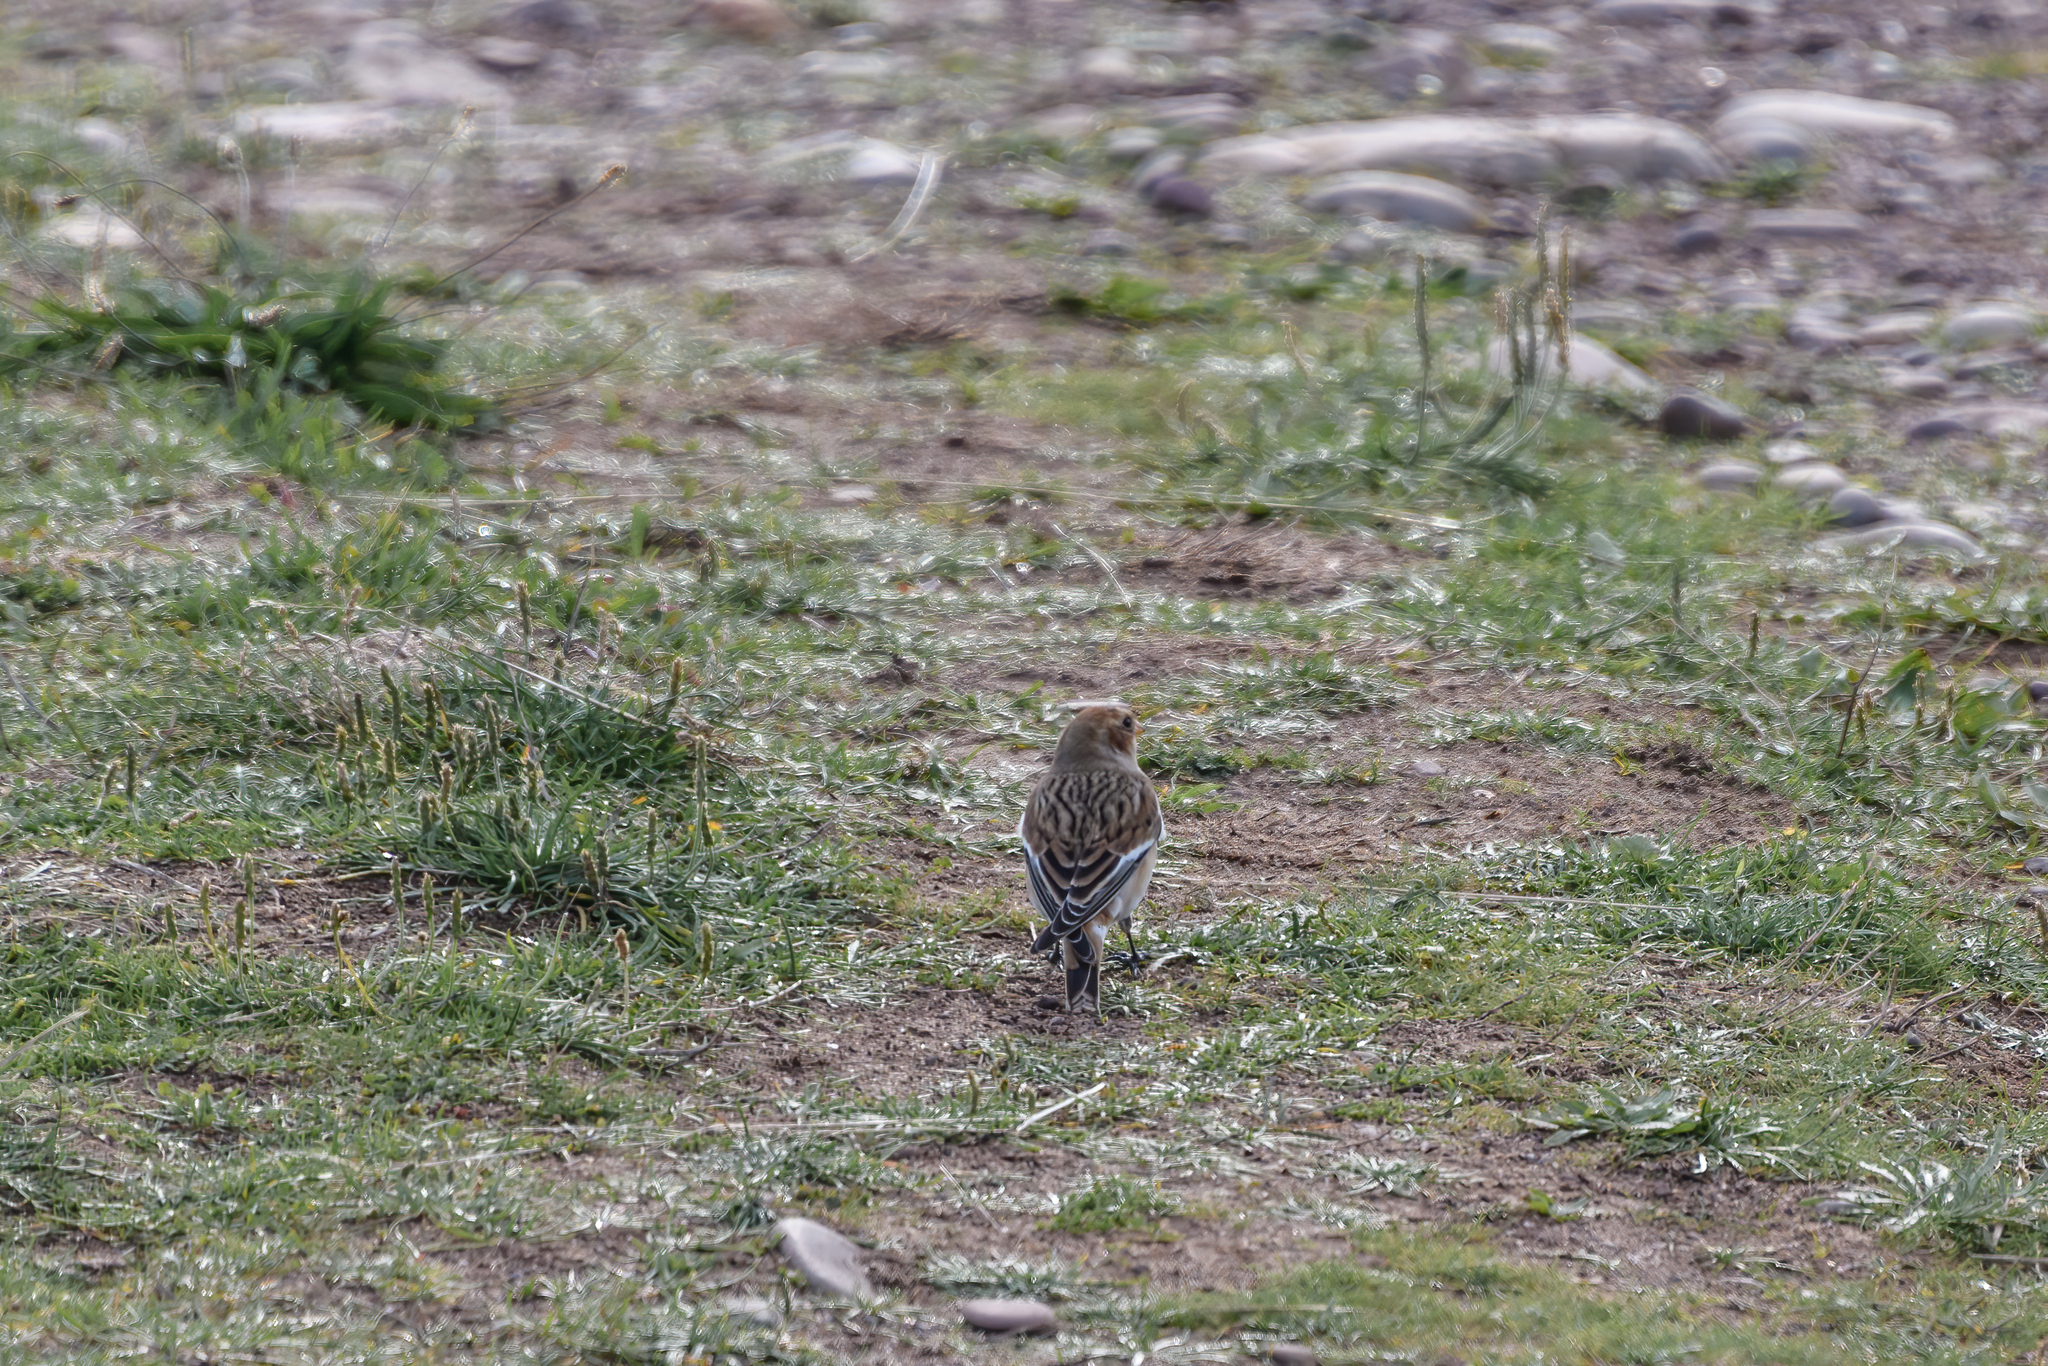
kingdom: Animalia
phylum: Chordata
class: Aves
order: Passeriformes
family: Calcariidae
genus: Plectrophenax
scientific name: Plectrophenax nivalis
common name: Snow bunting
